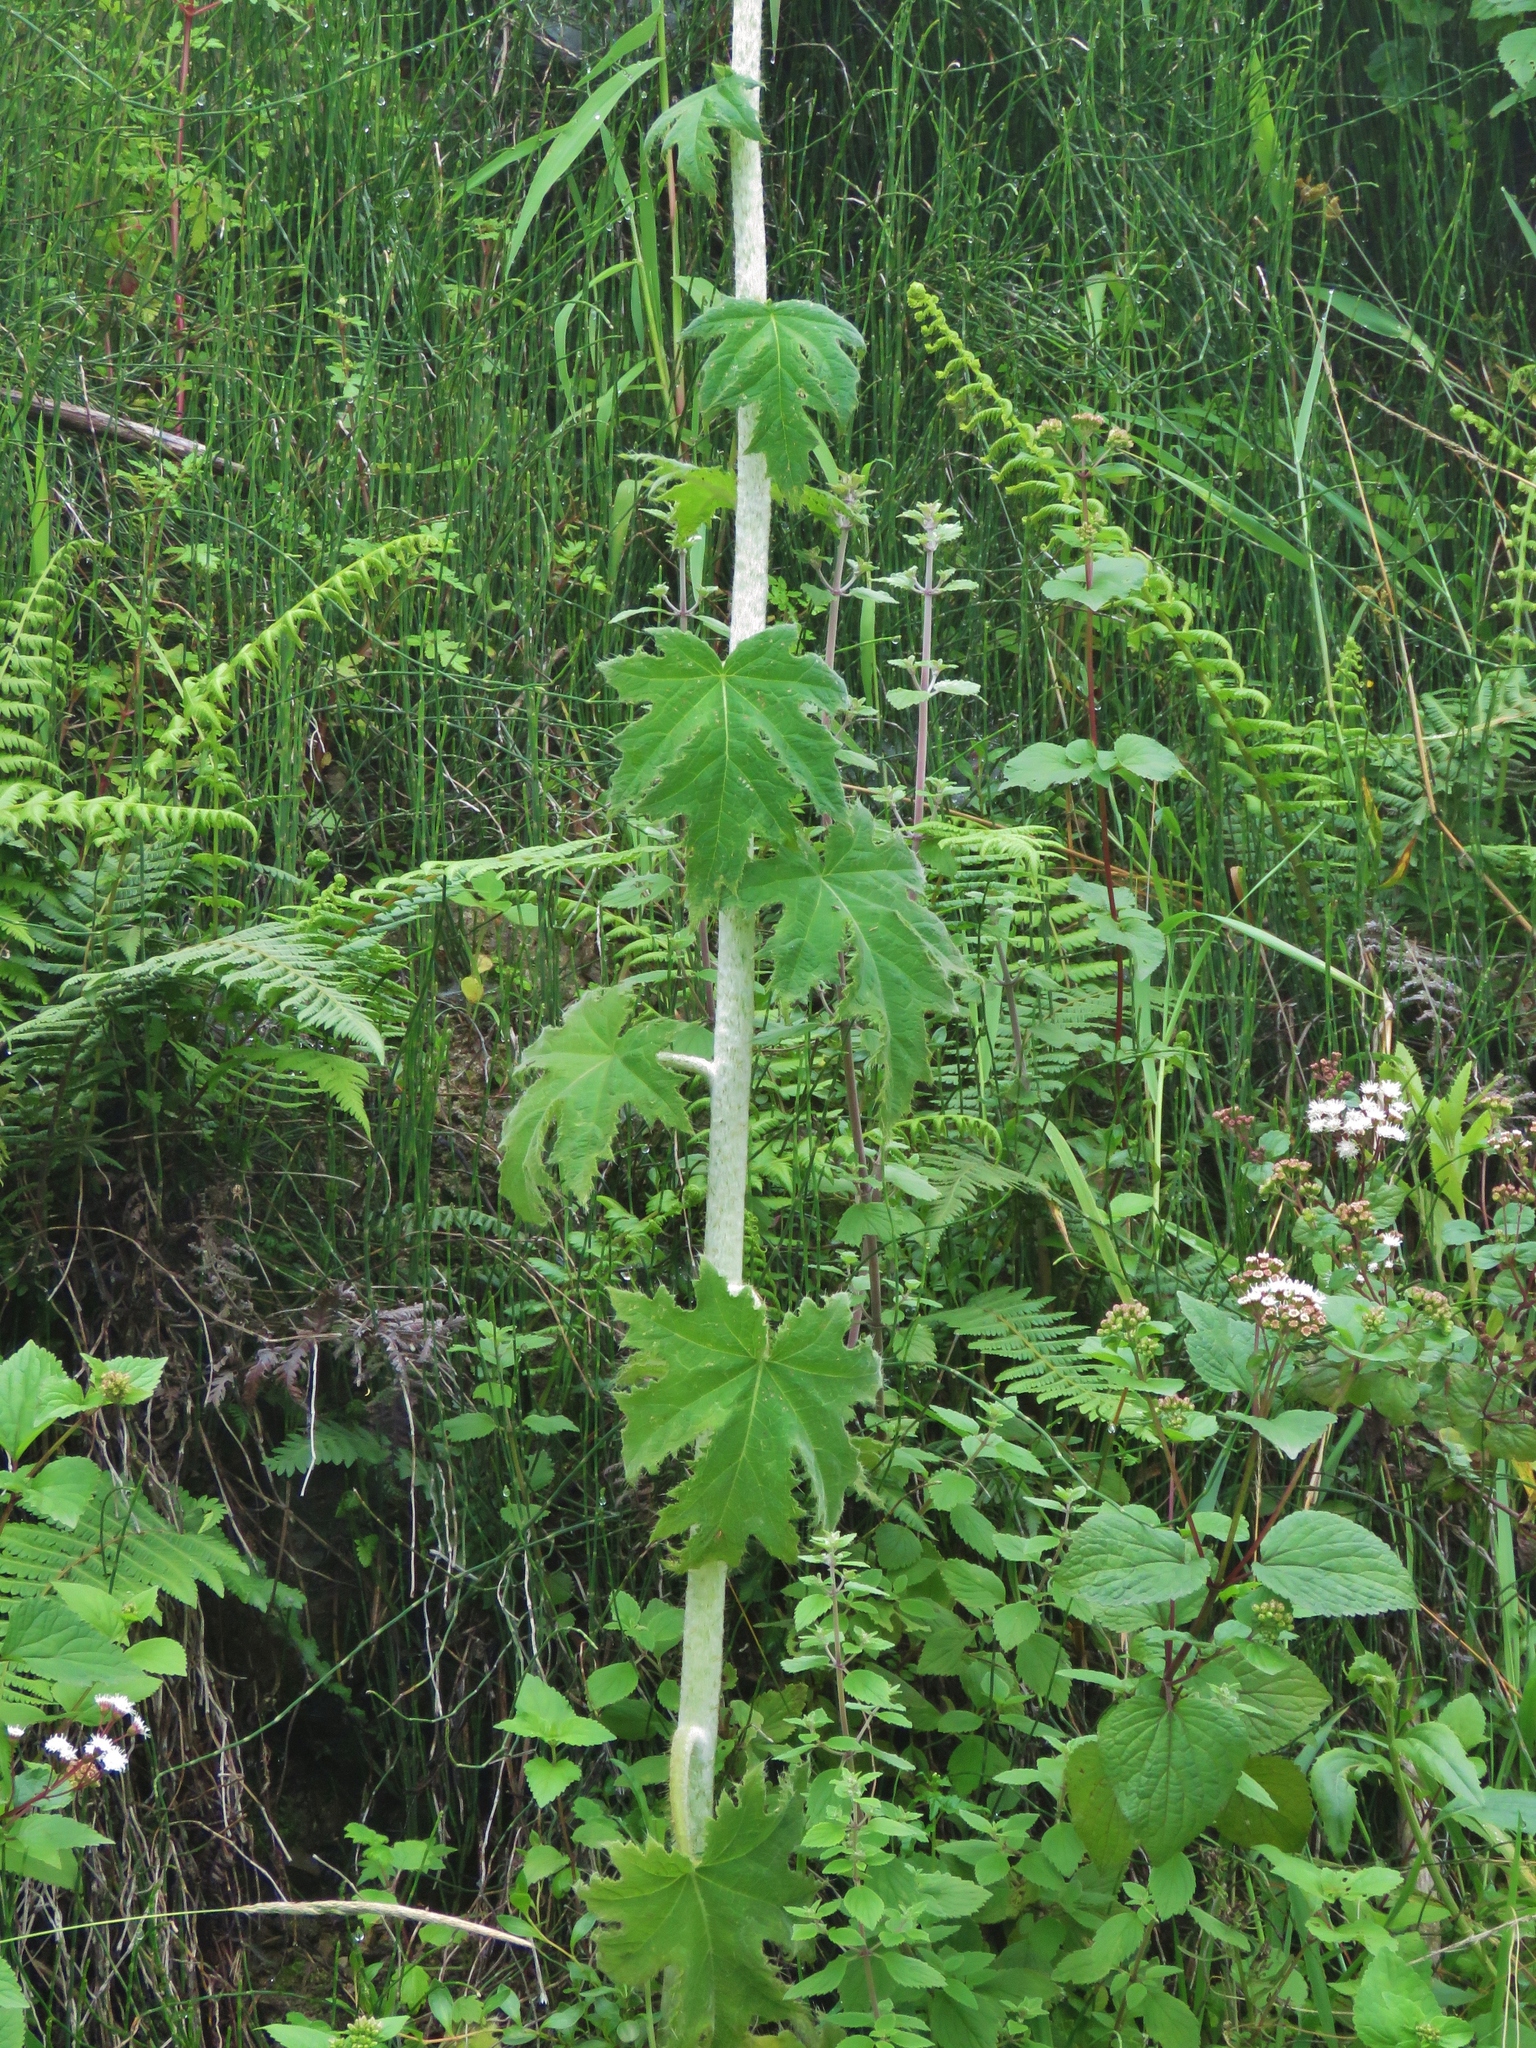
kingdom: Plantae
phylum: Tracheophyta
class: Magnoliopsida
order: Cornales
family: Loasaceae
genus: Nasa
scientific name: Nasa macrophylla
